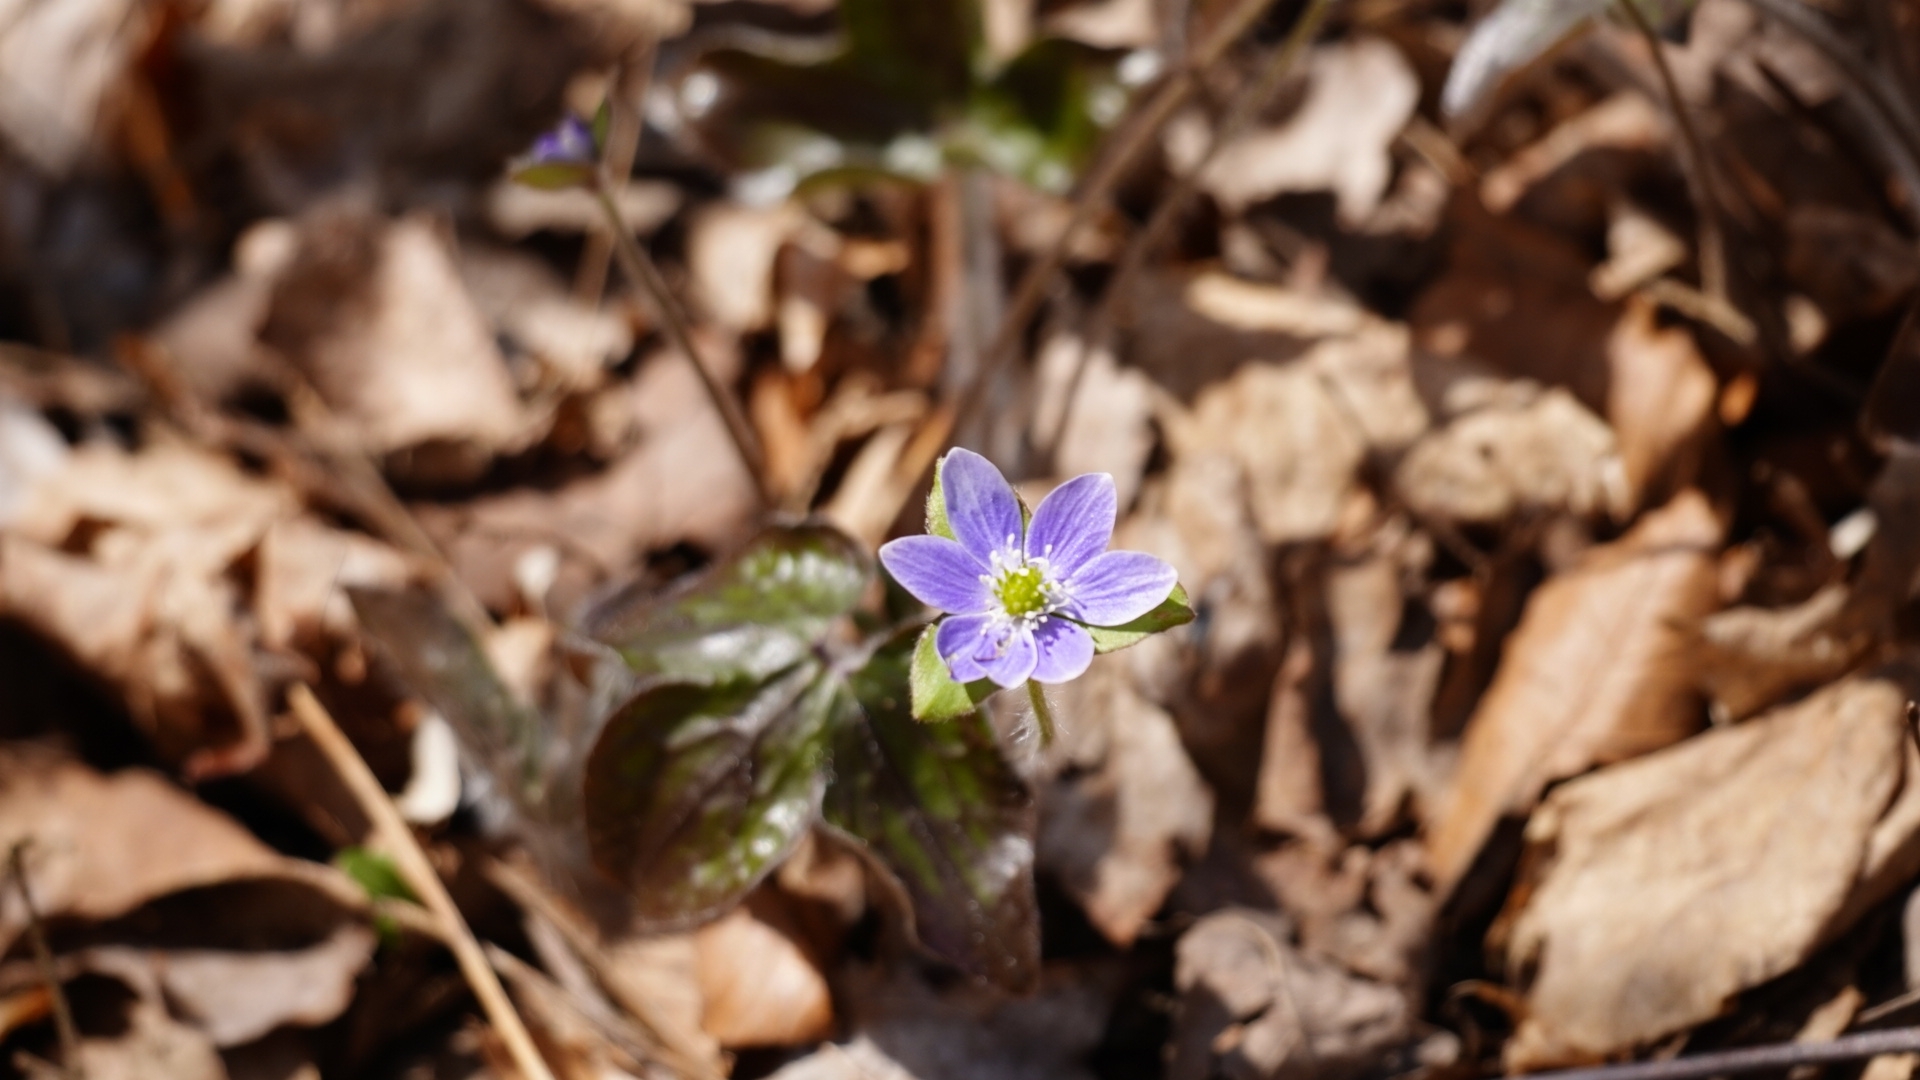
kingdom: Plantae
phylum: Tracheophyta
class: Magnoliopsida
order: Ranunculales
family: Ranunculaceae
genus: Hepatica
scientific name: Hepatica acutiloba
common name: Sharp-lobed hepatica
